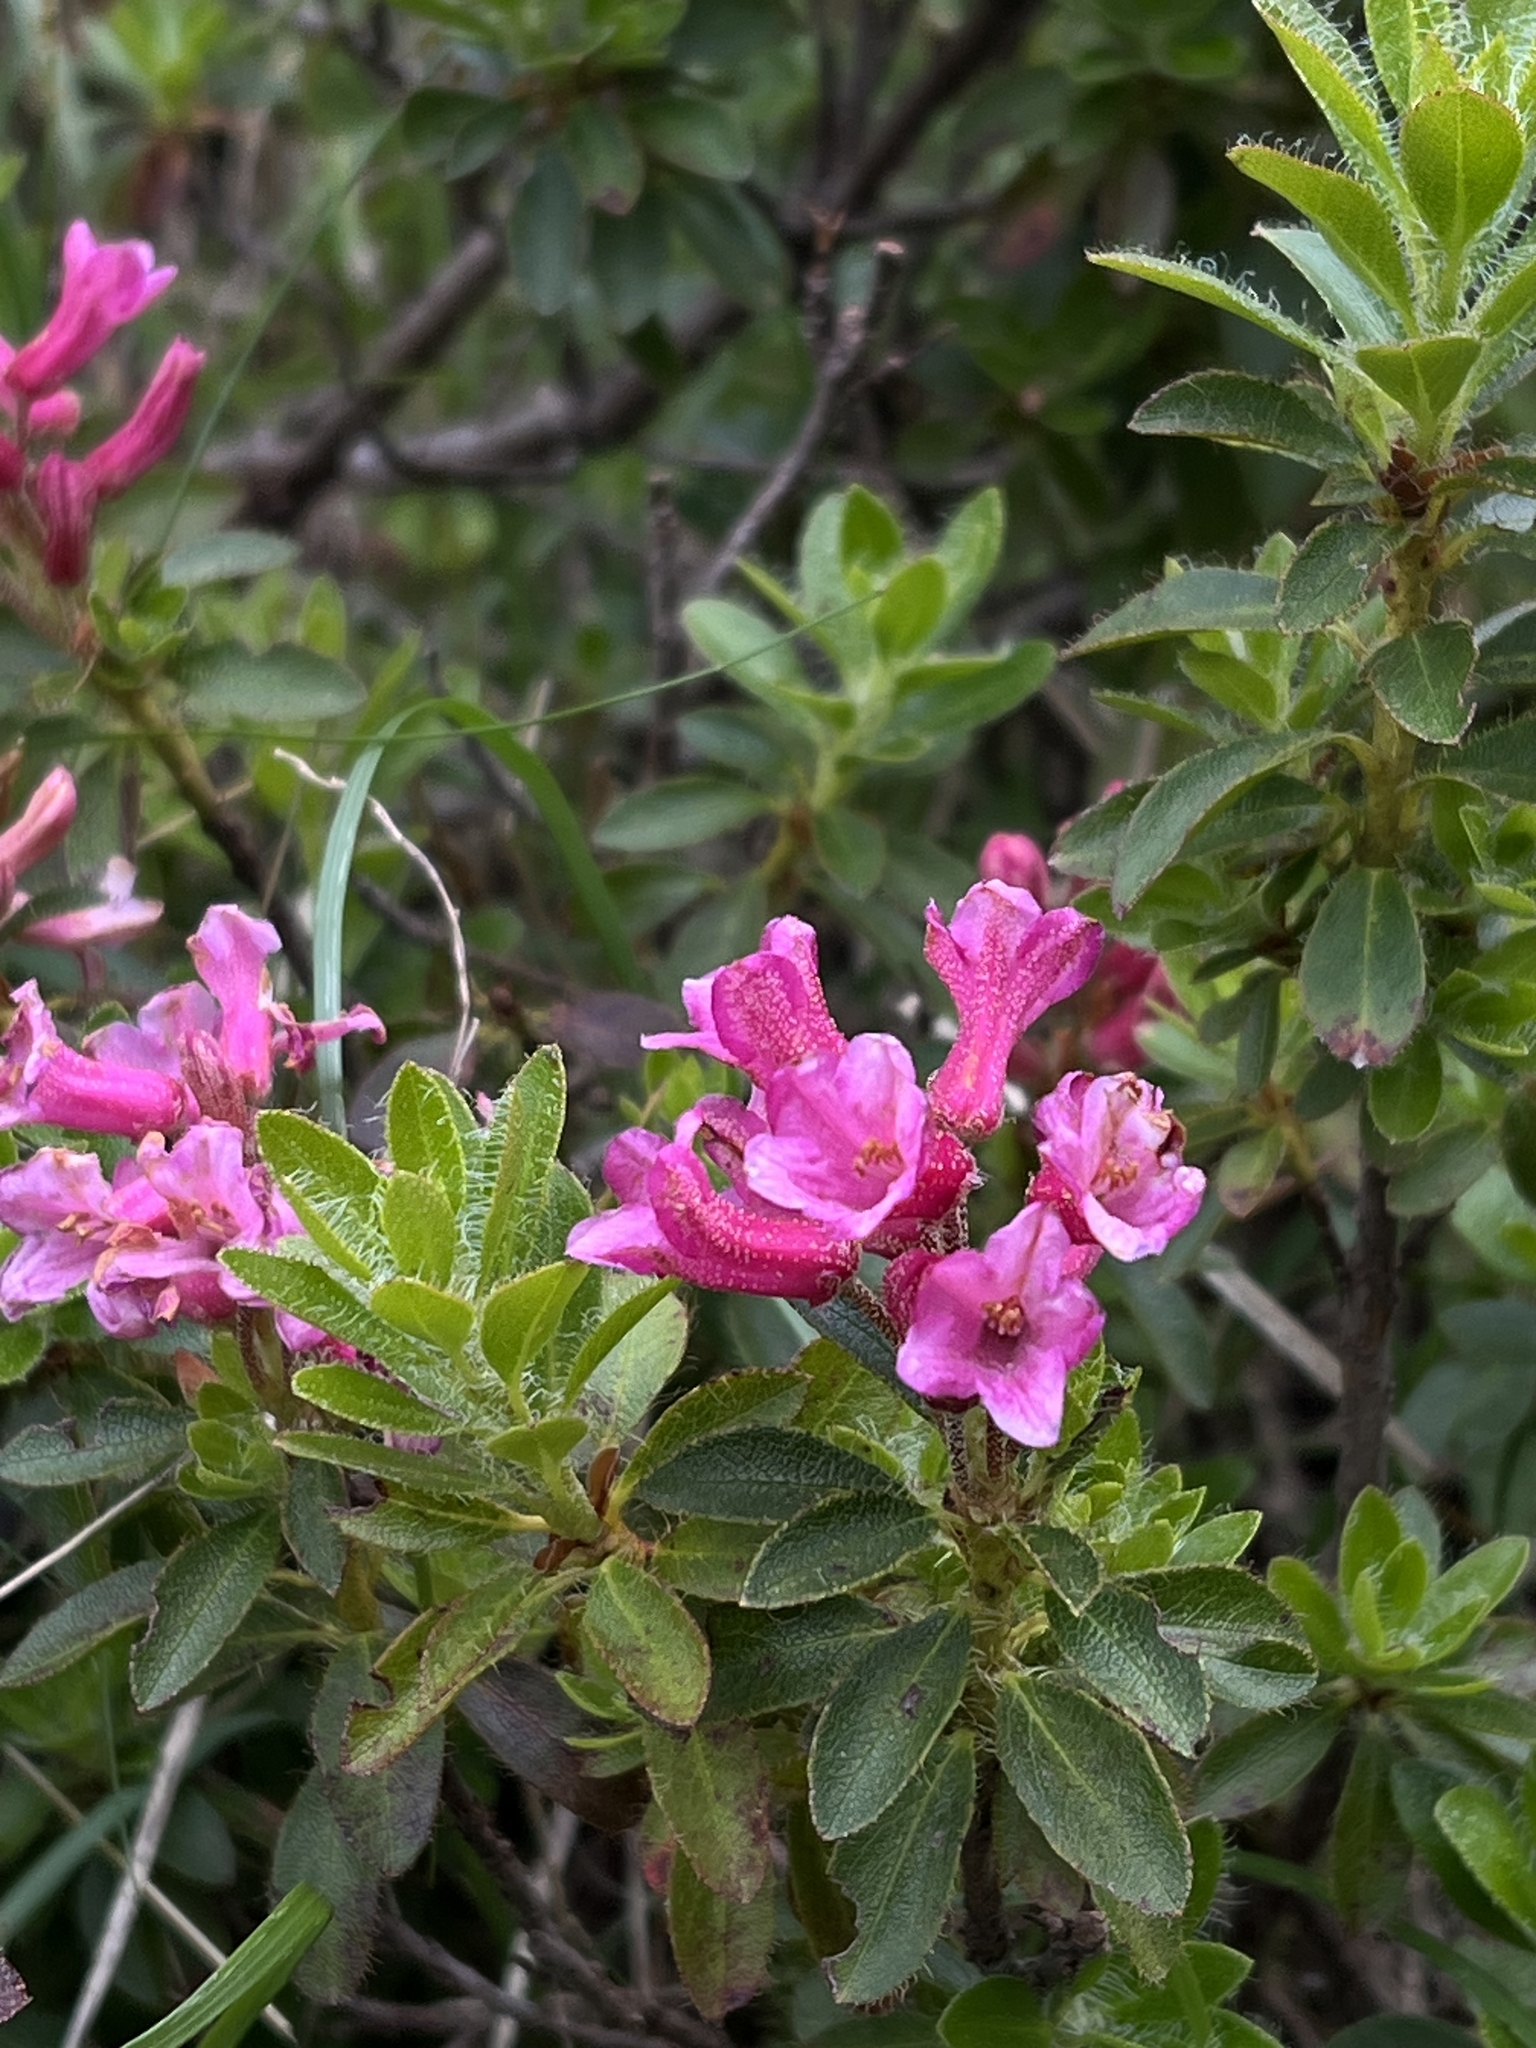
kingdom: Plantae
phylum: Tracheophyta
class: Magnoliopsida
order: Ericales
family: Ericaceae
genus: Rhododendron
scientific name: Rhododendron hirsutum
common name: Hairy alpenrose
